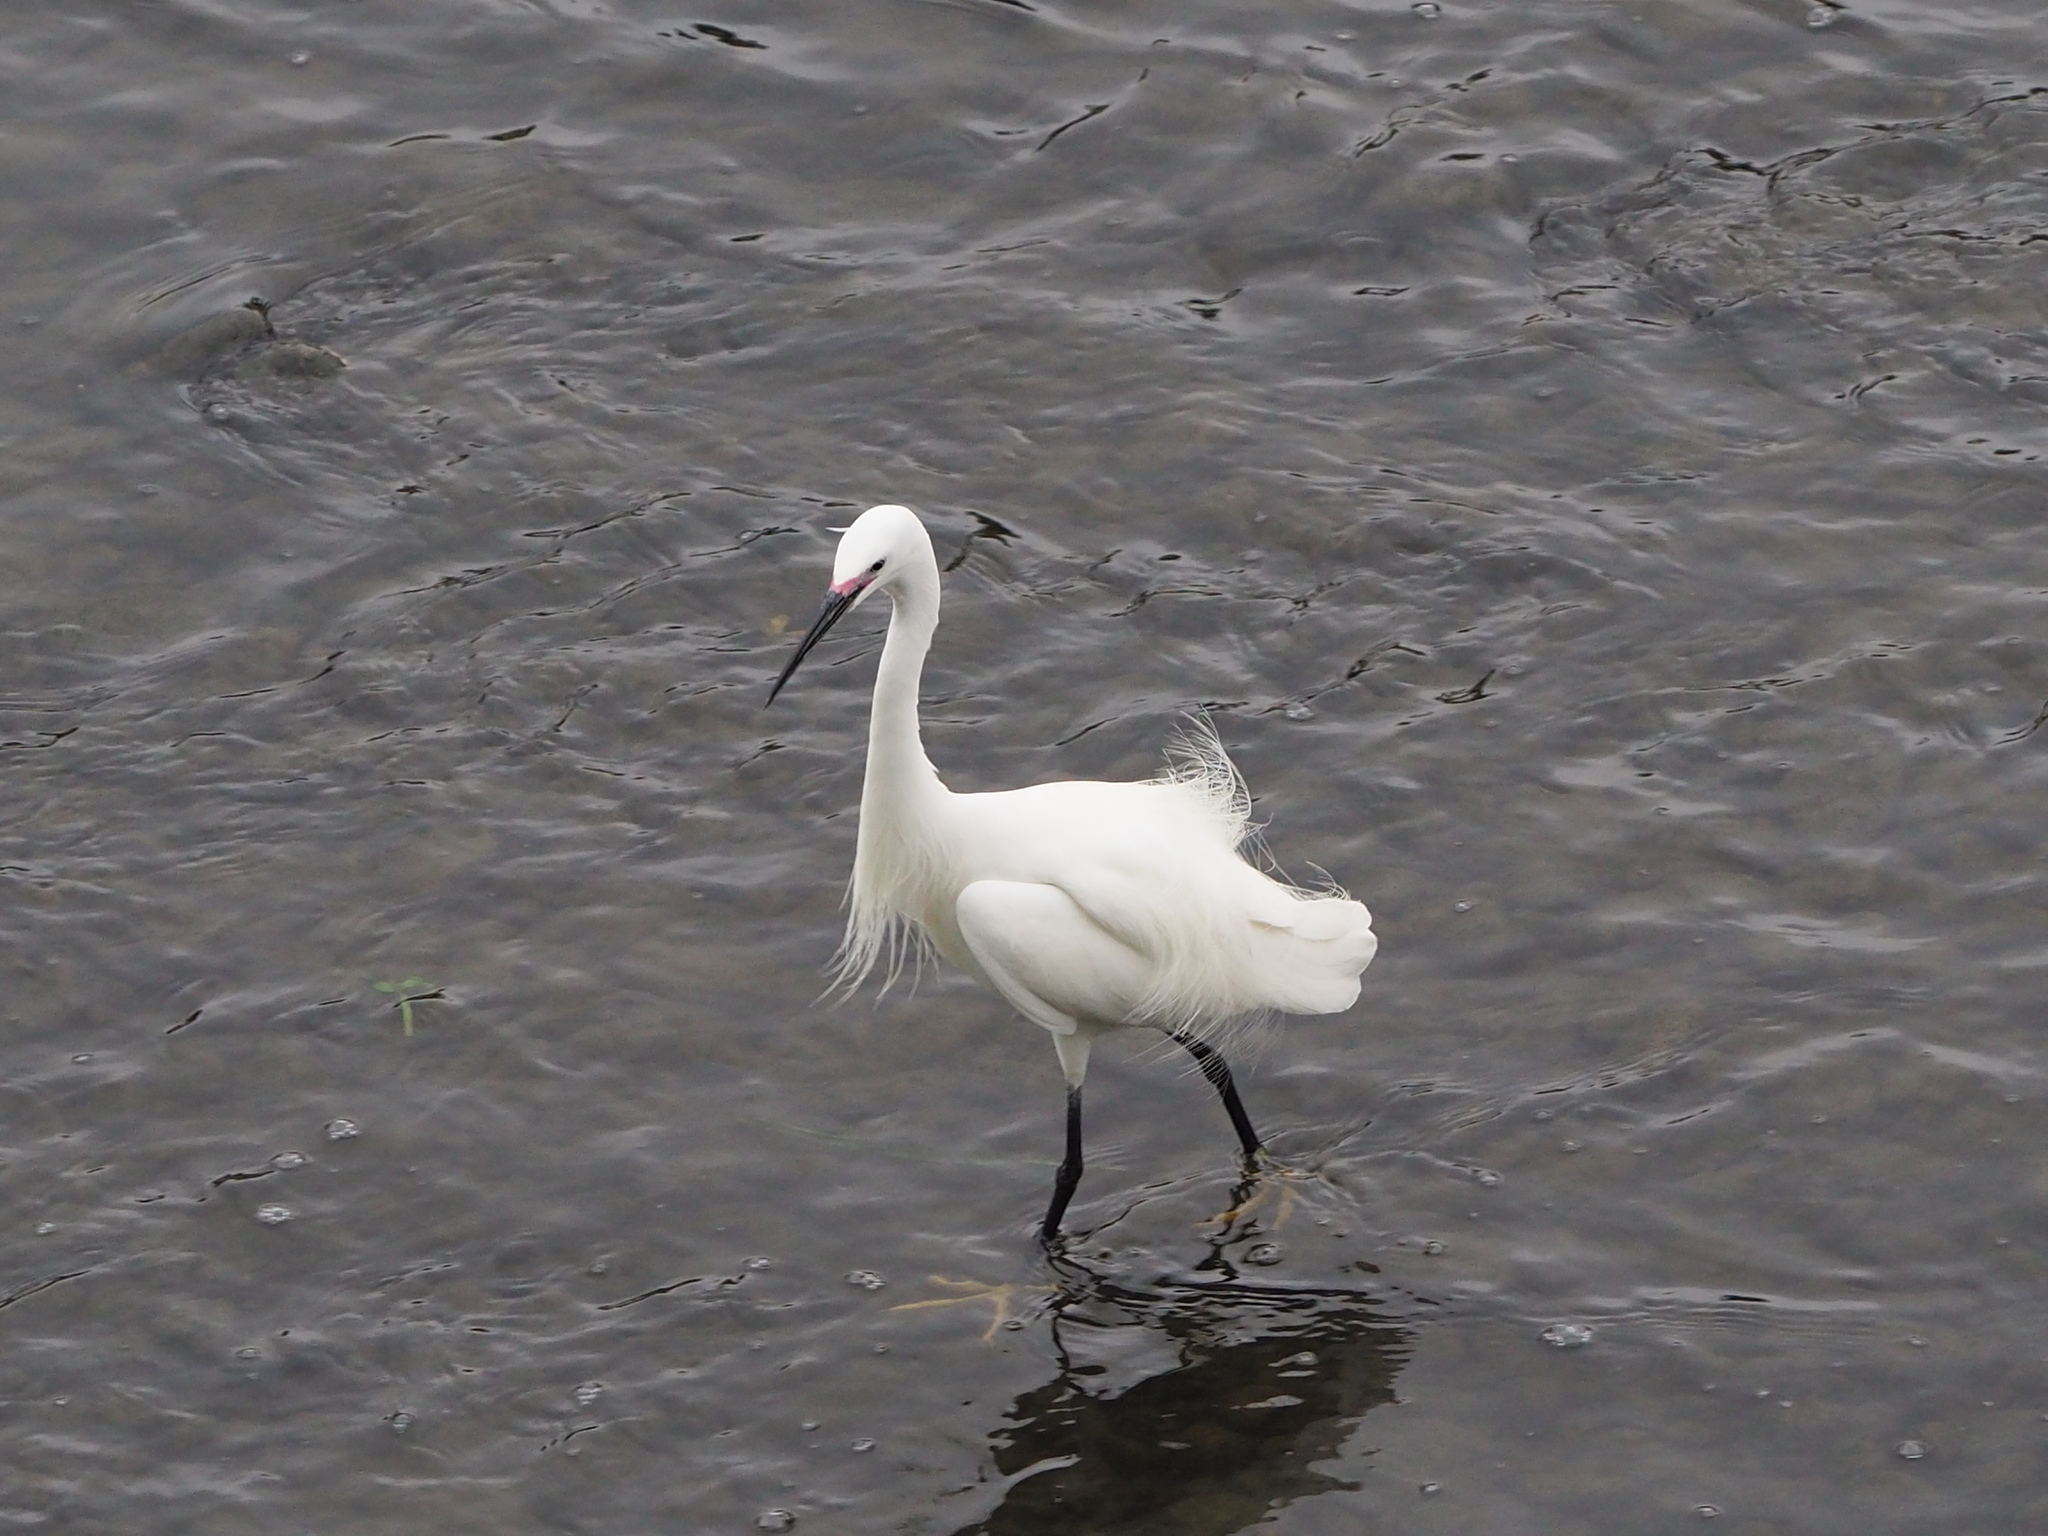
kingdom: Animalia
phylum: Chordata
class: Aves
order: Pelecaniformes
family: Ardeidae
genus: Egretta
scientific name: Egretta garzetta
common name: Little egret
